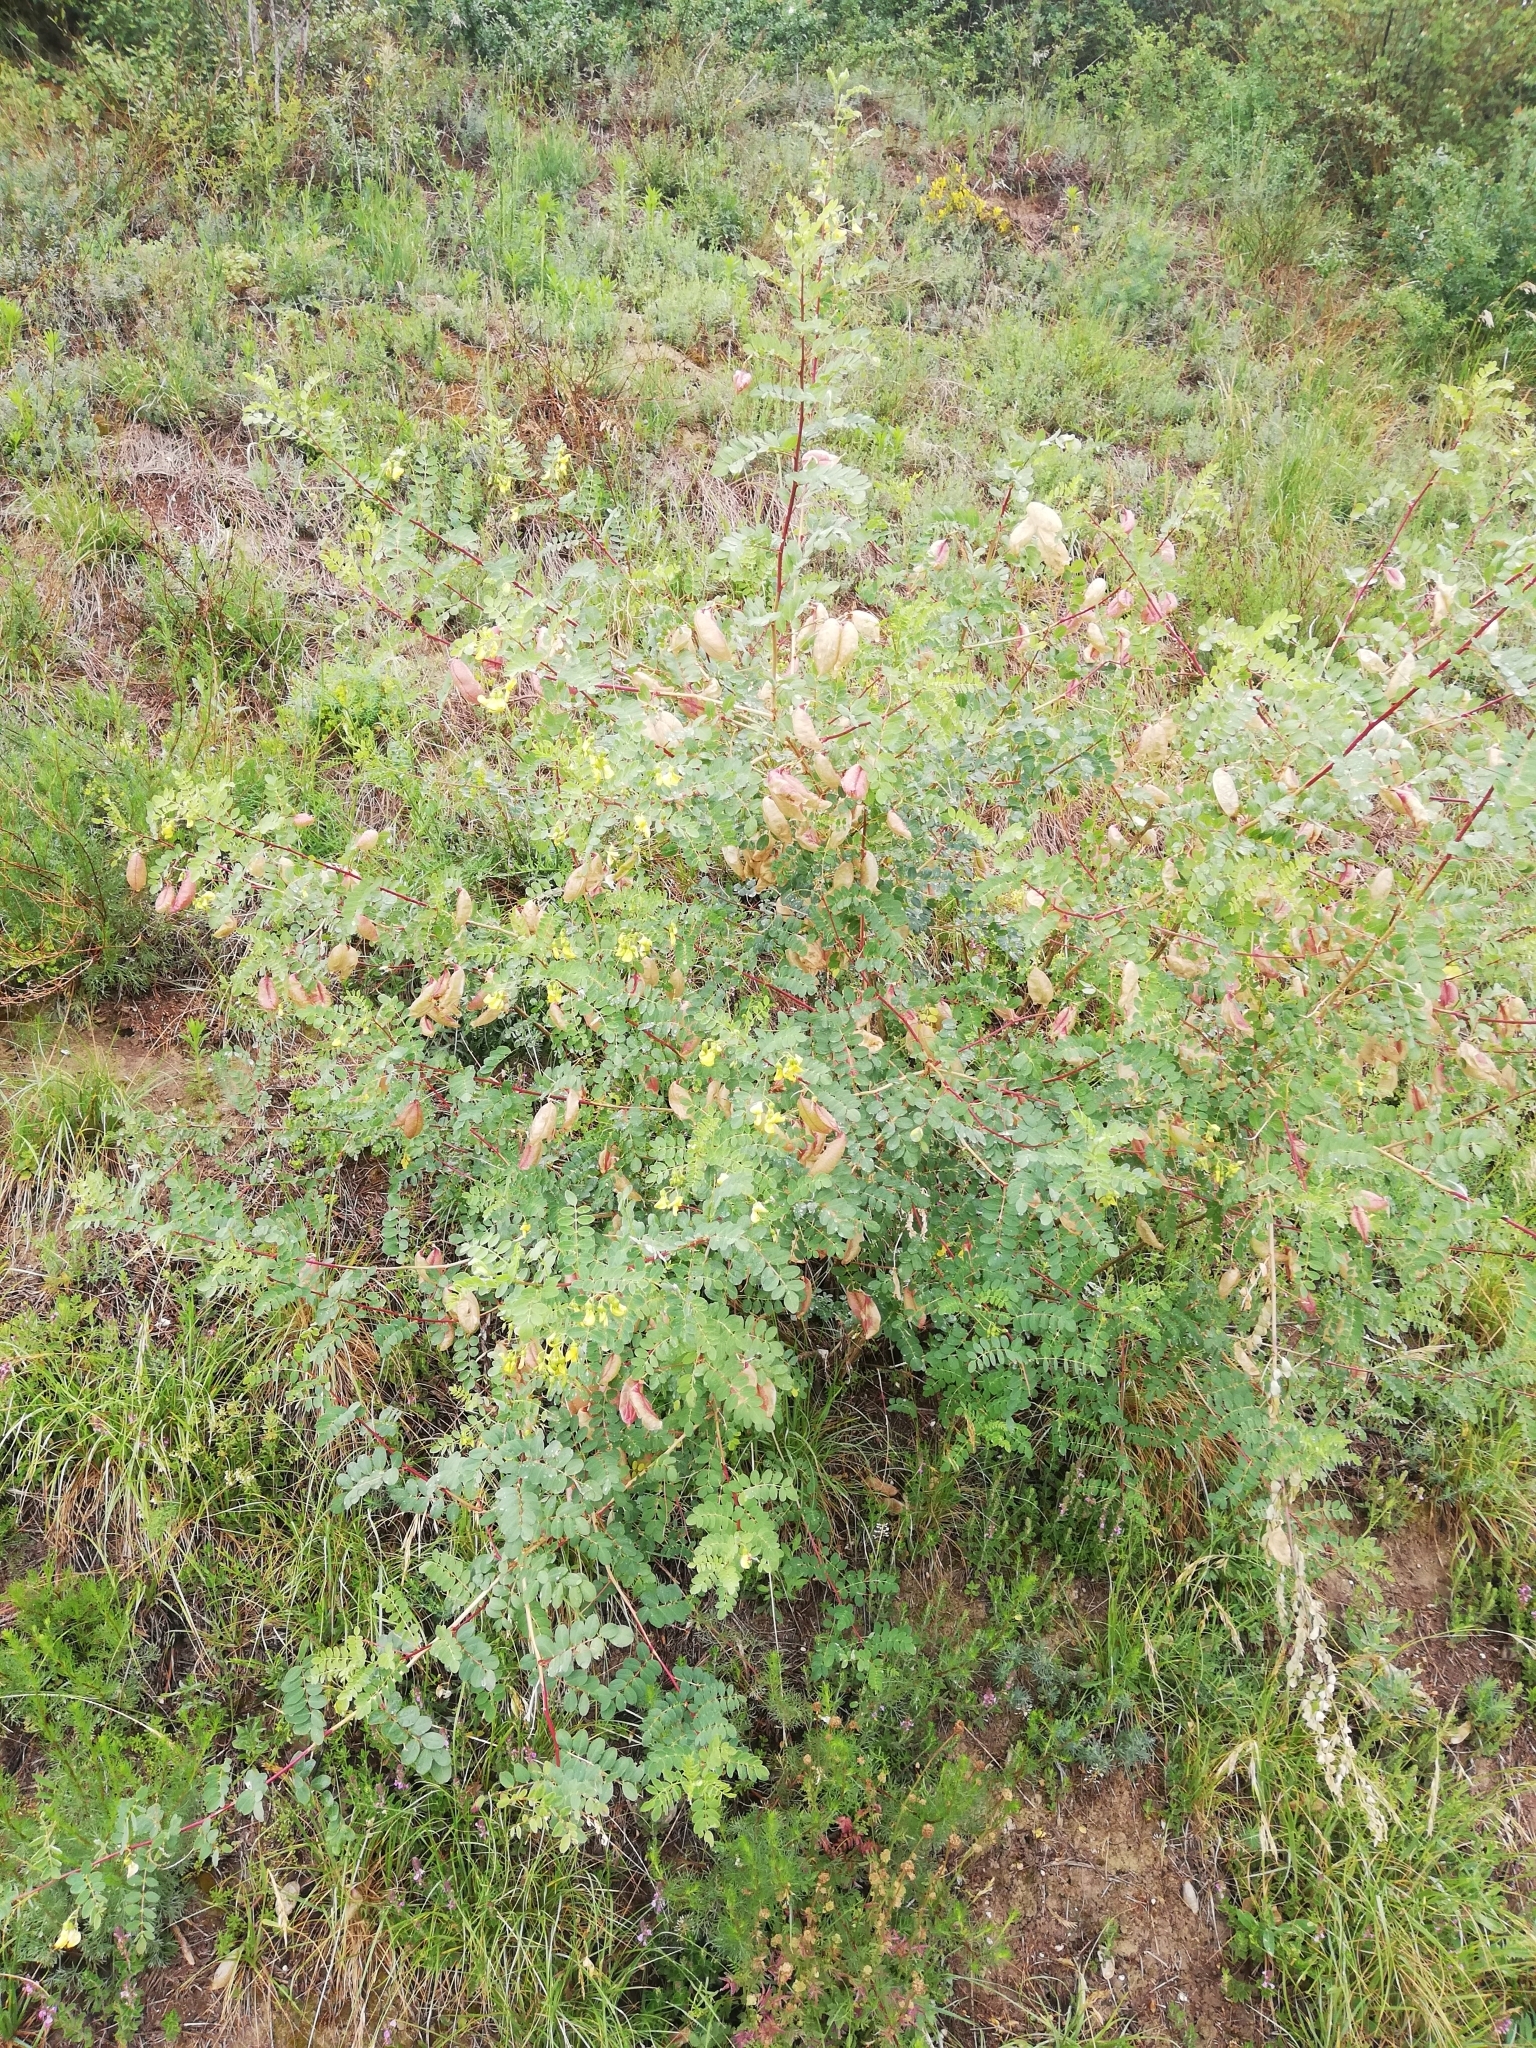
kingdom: Plantae
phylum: Tracheophyta
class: Magnoliopsida
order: Fabales
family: Fabaceae
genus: Colutea
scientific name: Colutea arborescens
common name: Bladder-senna
